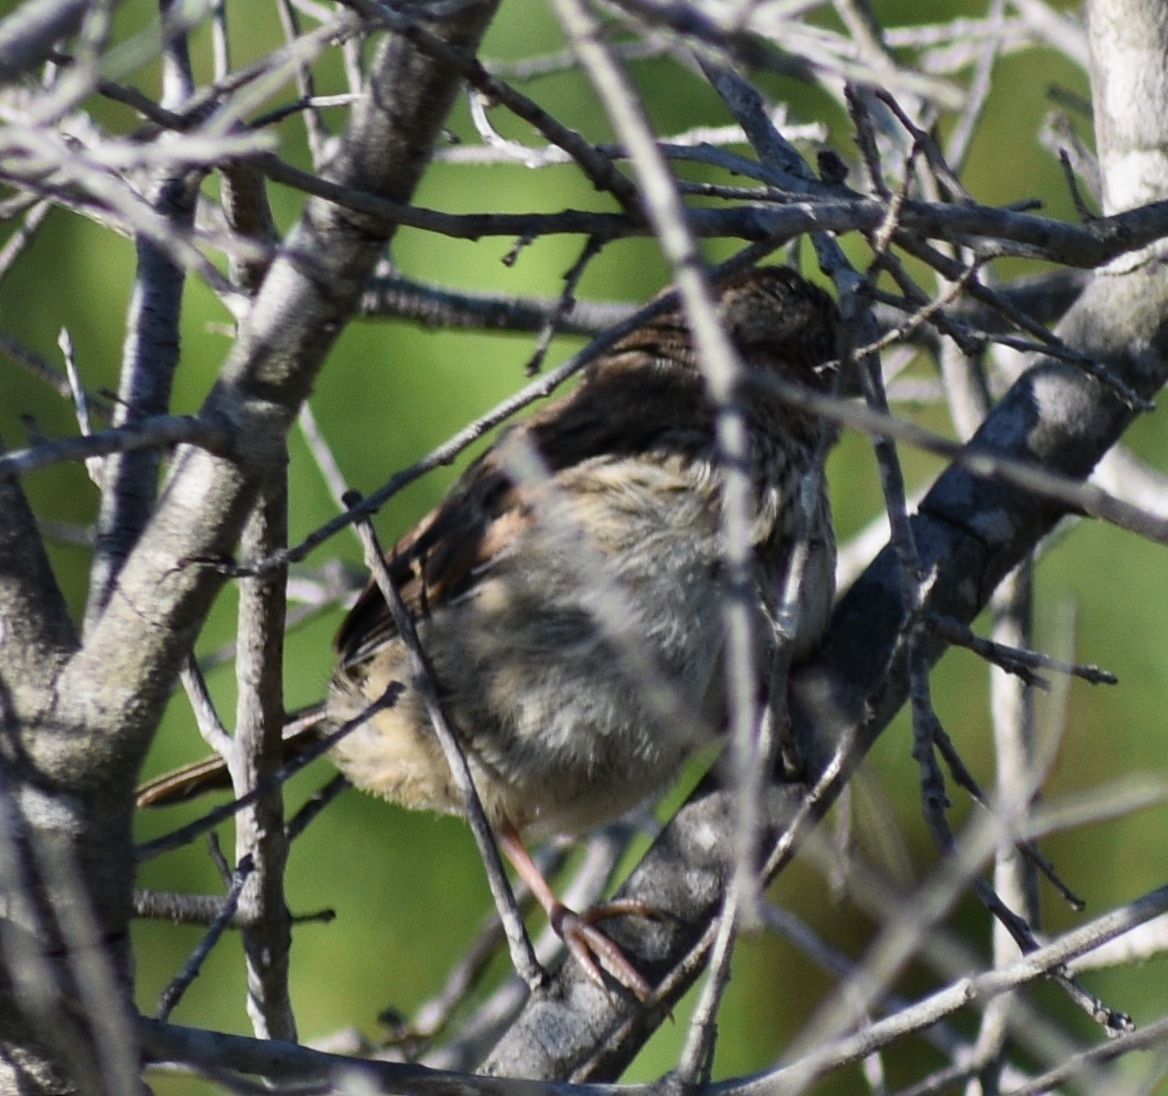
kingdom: Animalia
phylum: Chordata
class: Aves
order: Passeriformes
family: Passerellidae
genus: Melospiza
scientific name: Melospiza lincolnii
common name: Lincoln's sparrow
